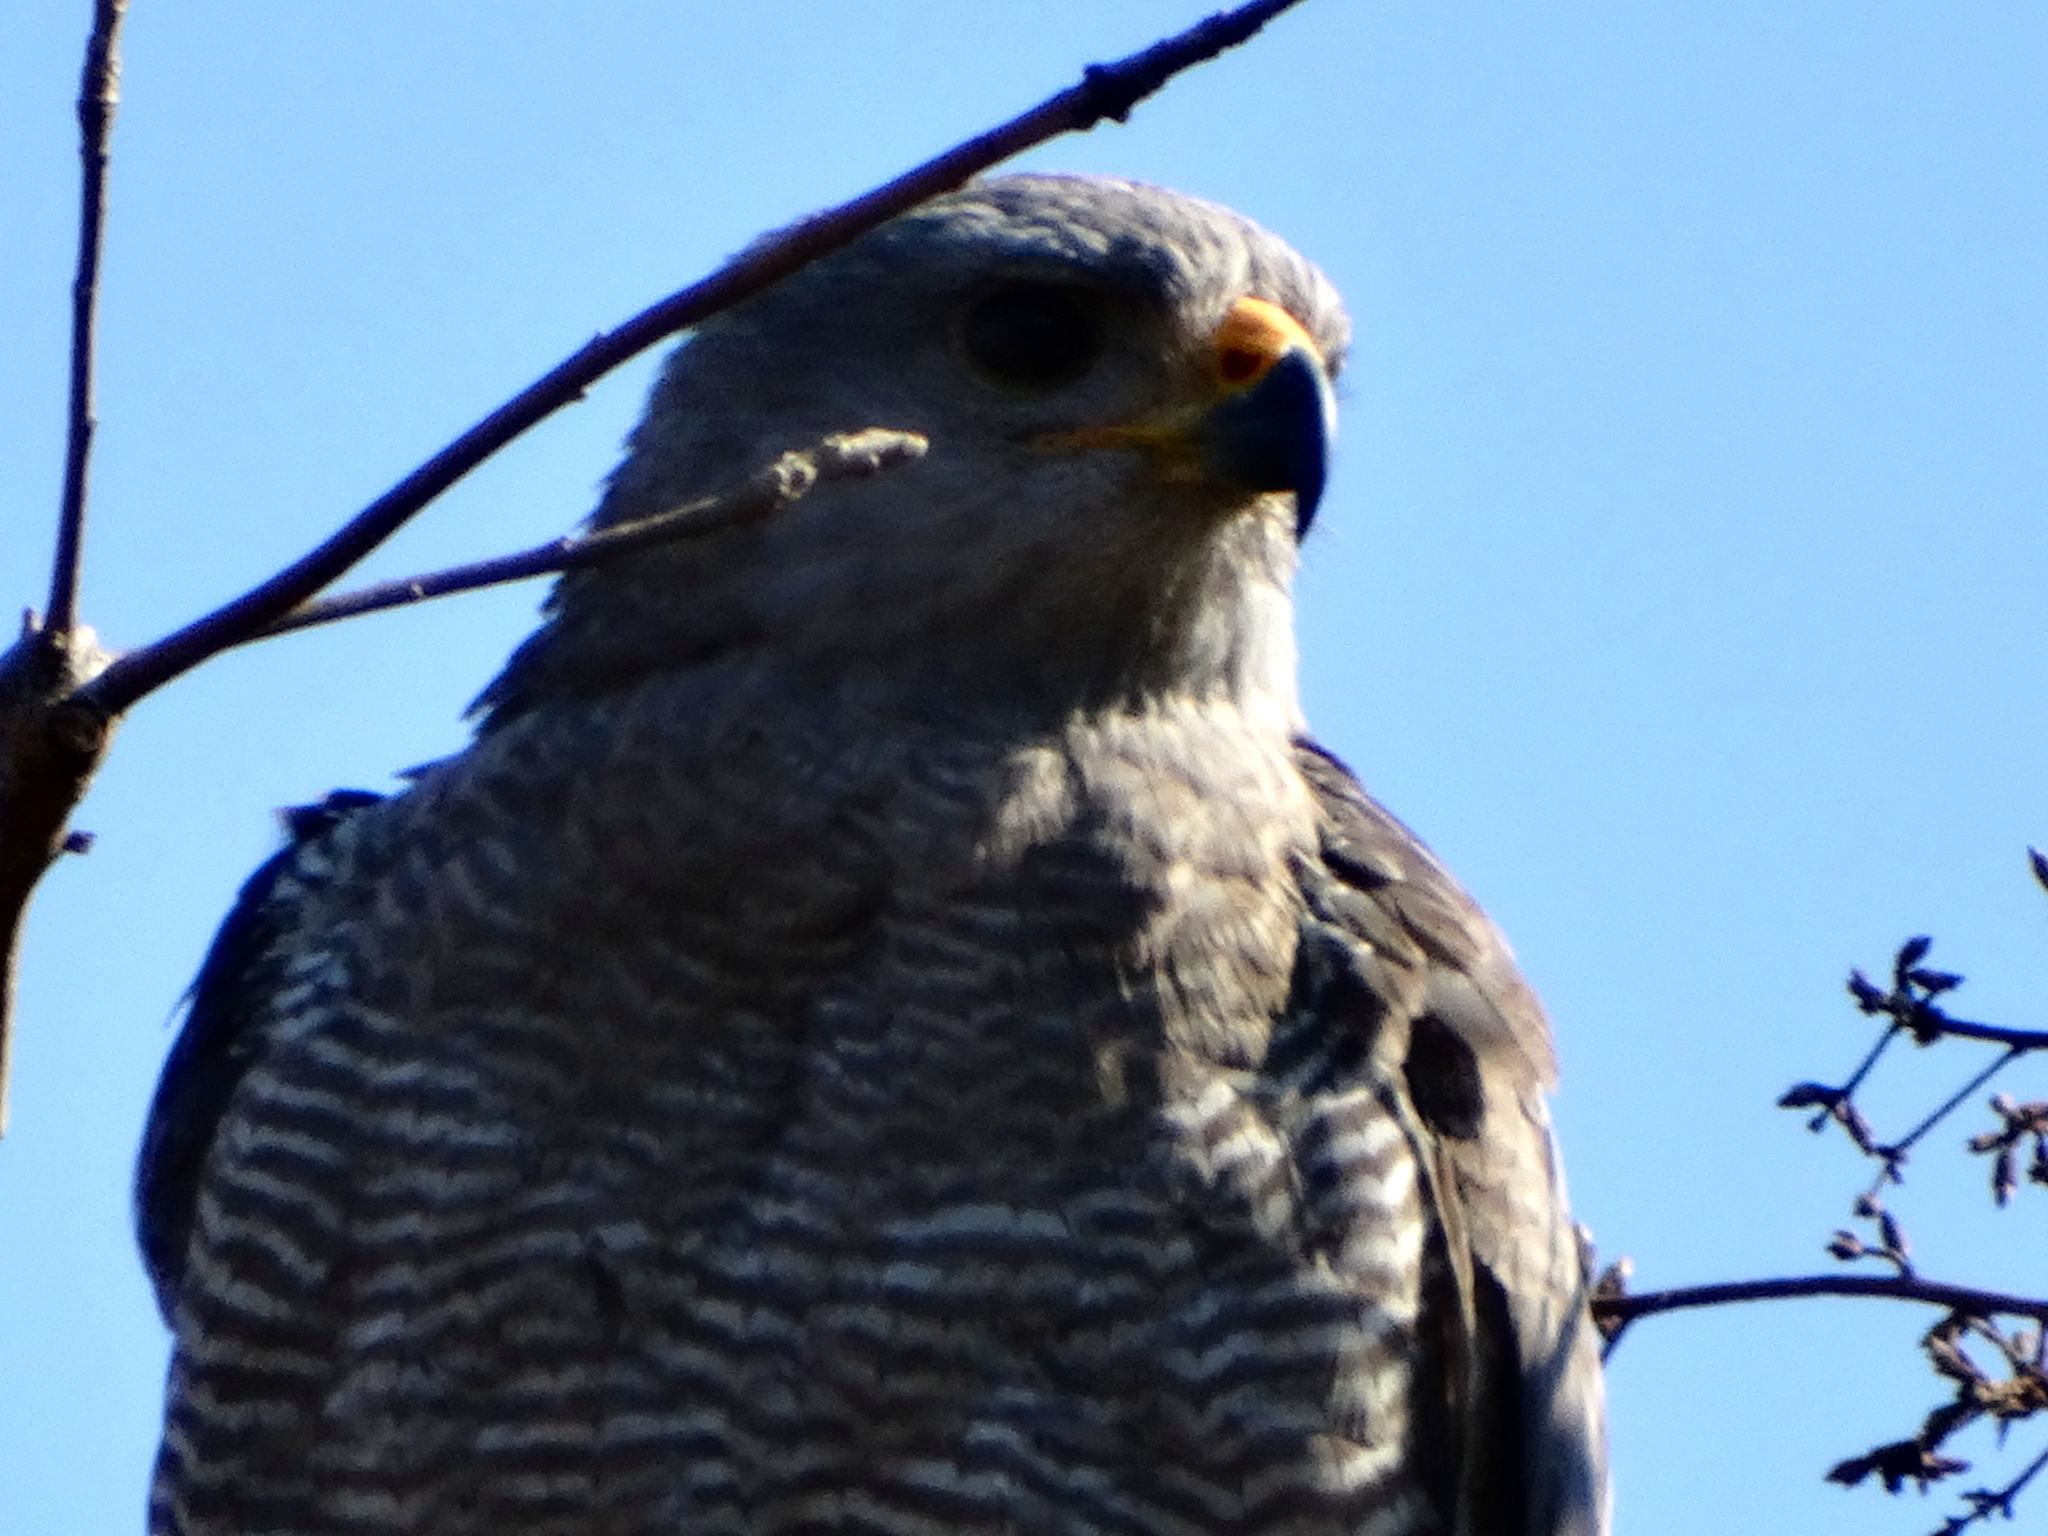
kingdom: Animalia
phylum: Chordata
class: Aves
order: Accipitriformes
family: Accipitridae
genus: Buteo
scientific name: Buteo nitidus
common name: Grey-lined hawk
